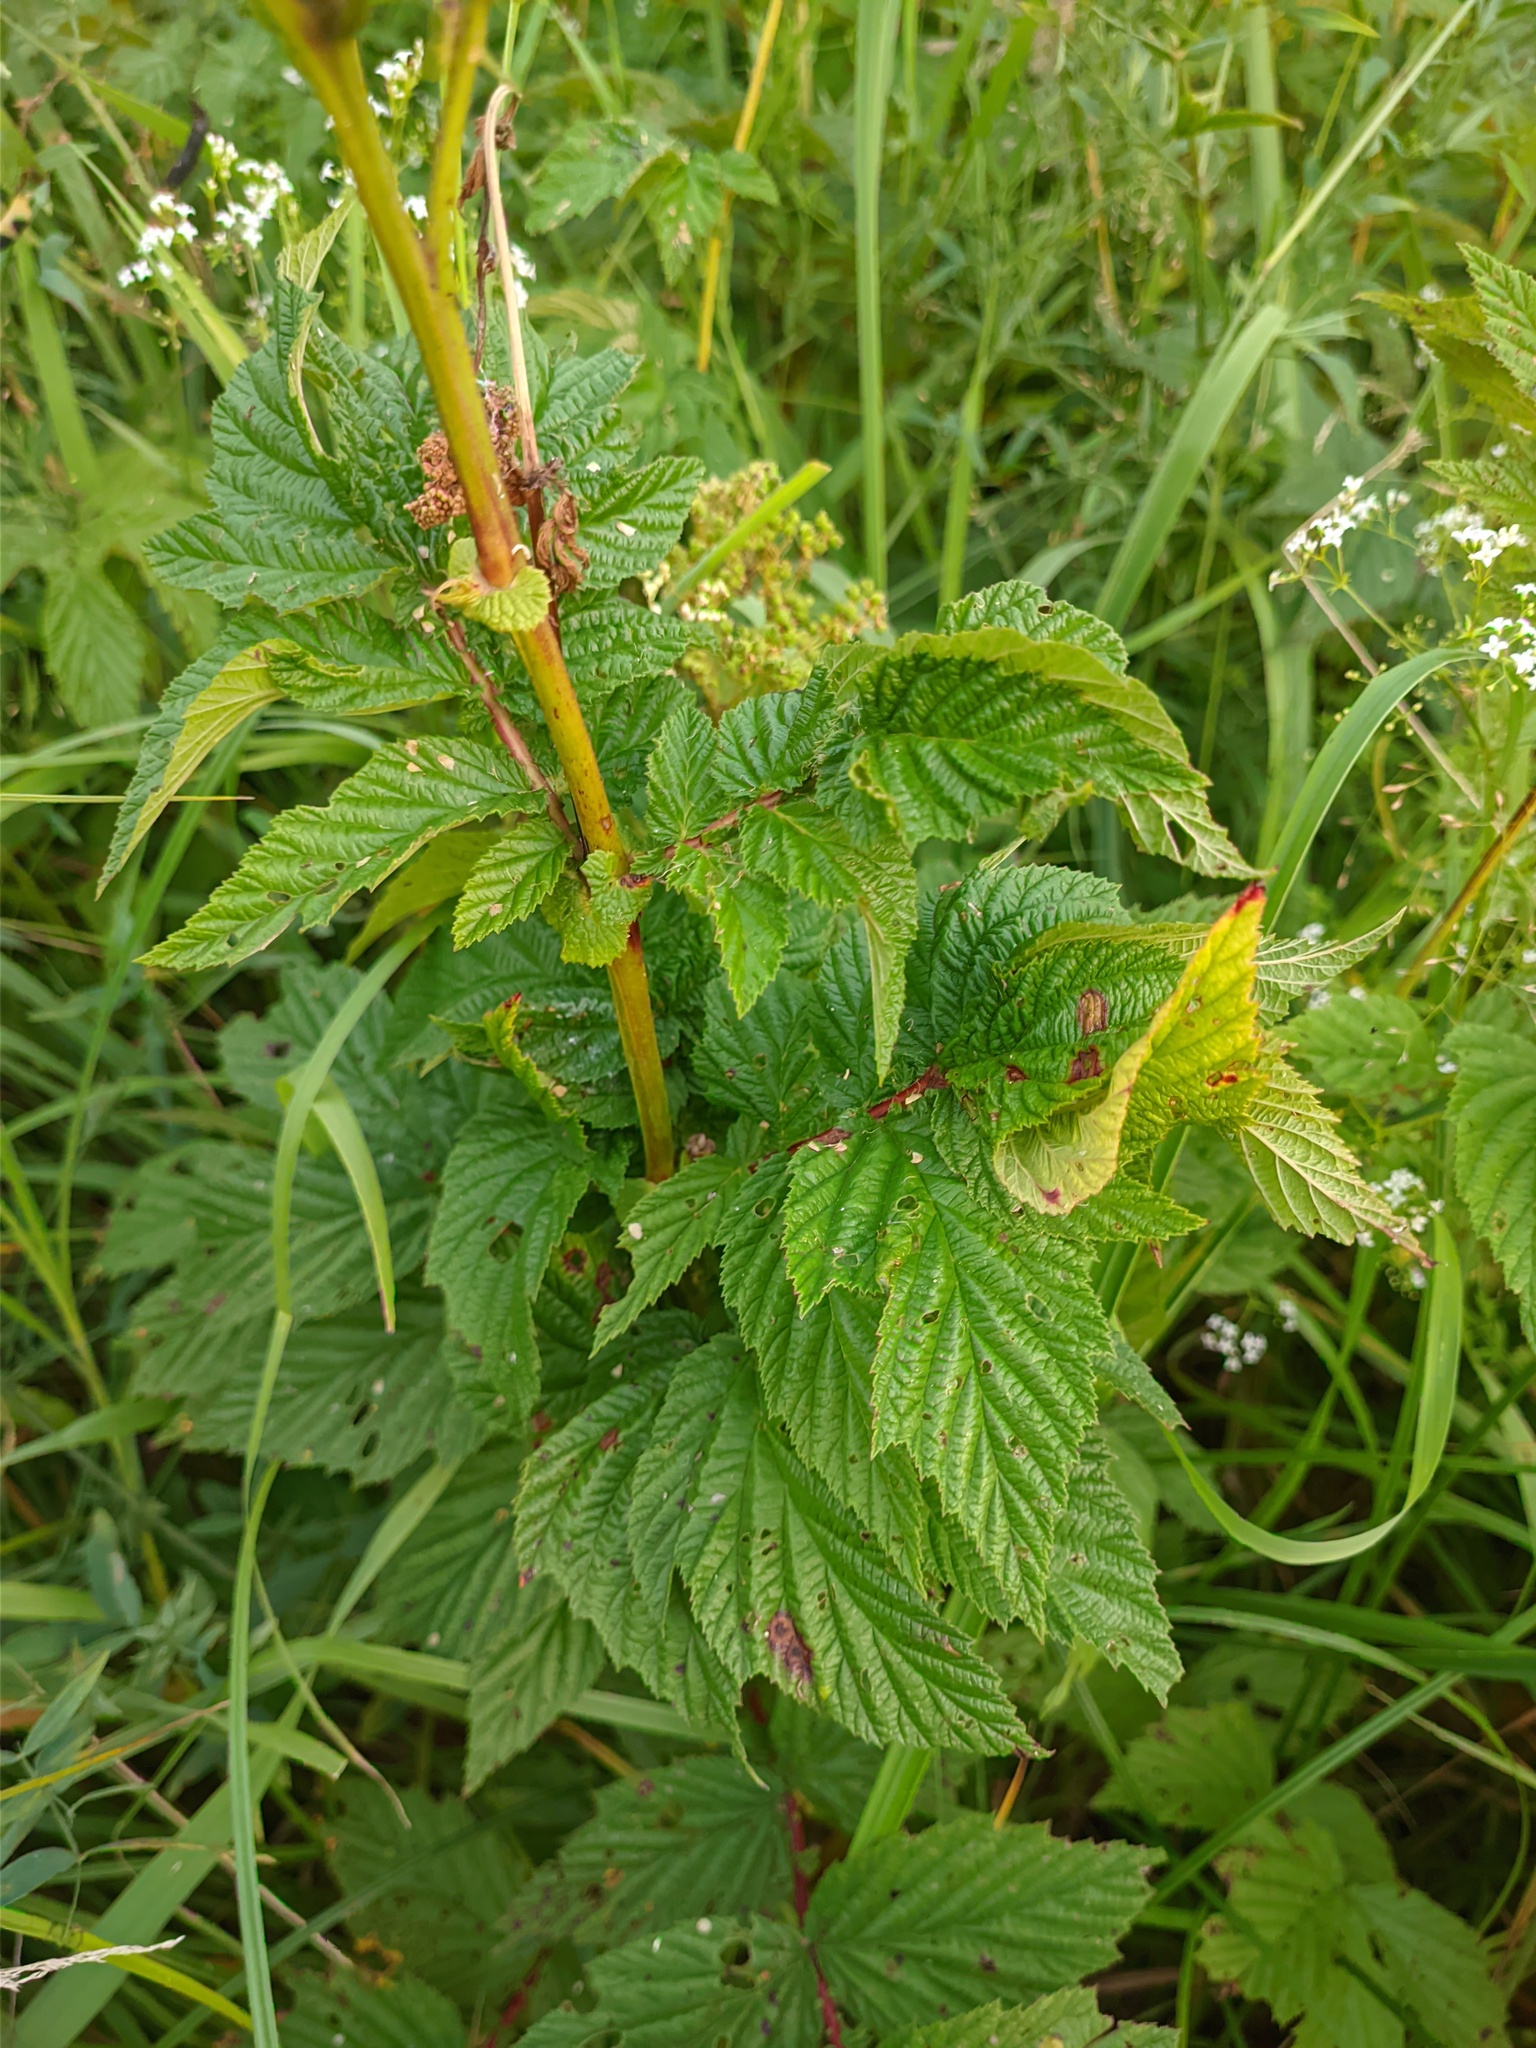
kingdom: Plantae
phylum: Tracheophyta
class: Magnoliopsida
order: Rosales
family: Rosaceae
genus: Filipendula
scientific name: Filipendula ulmaria
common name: Meadowsweet
